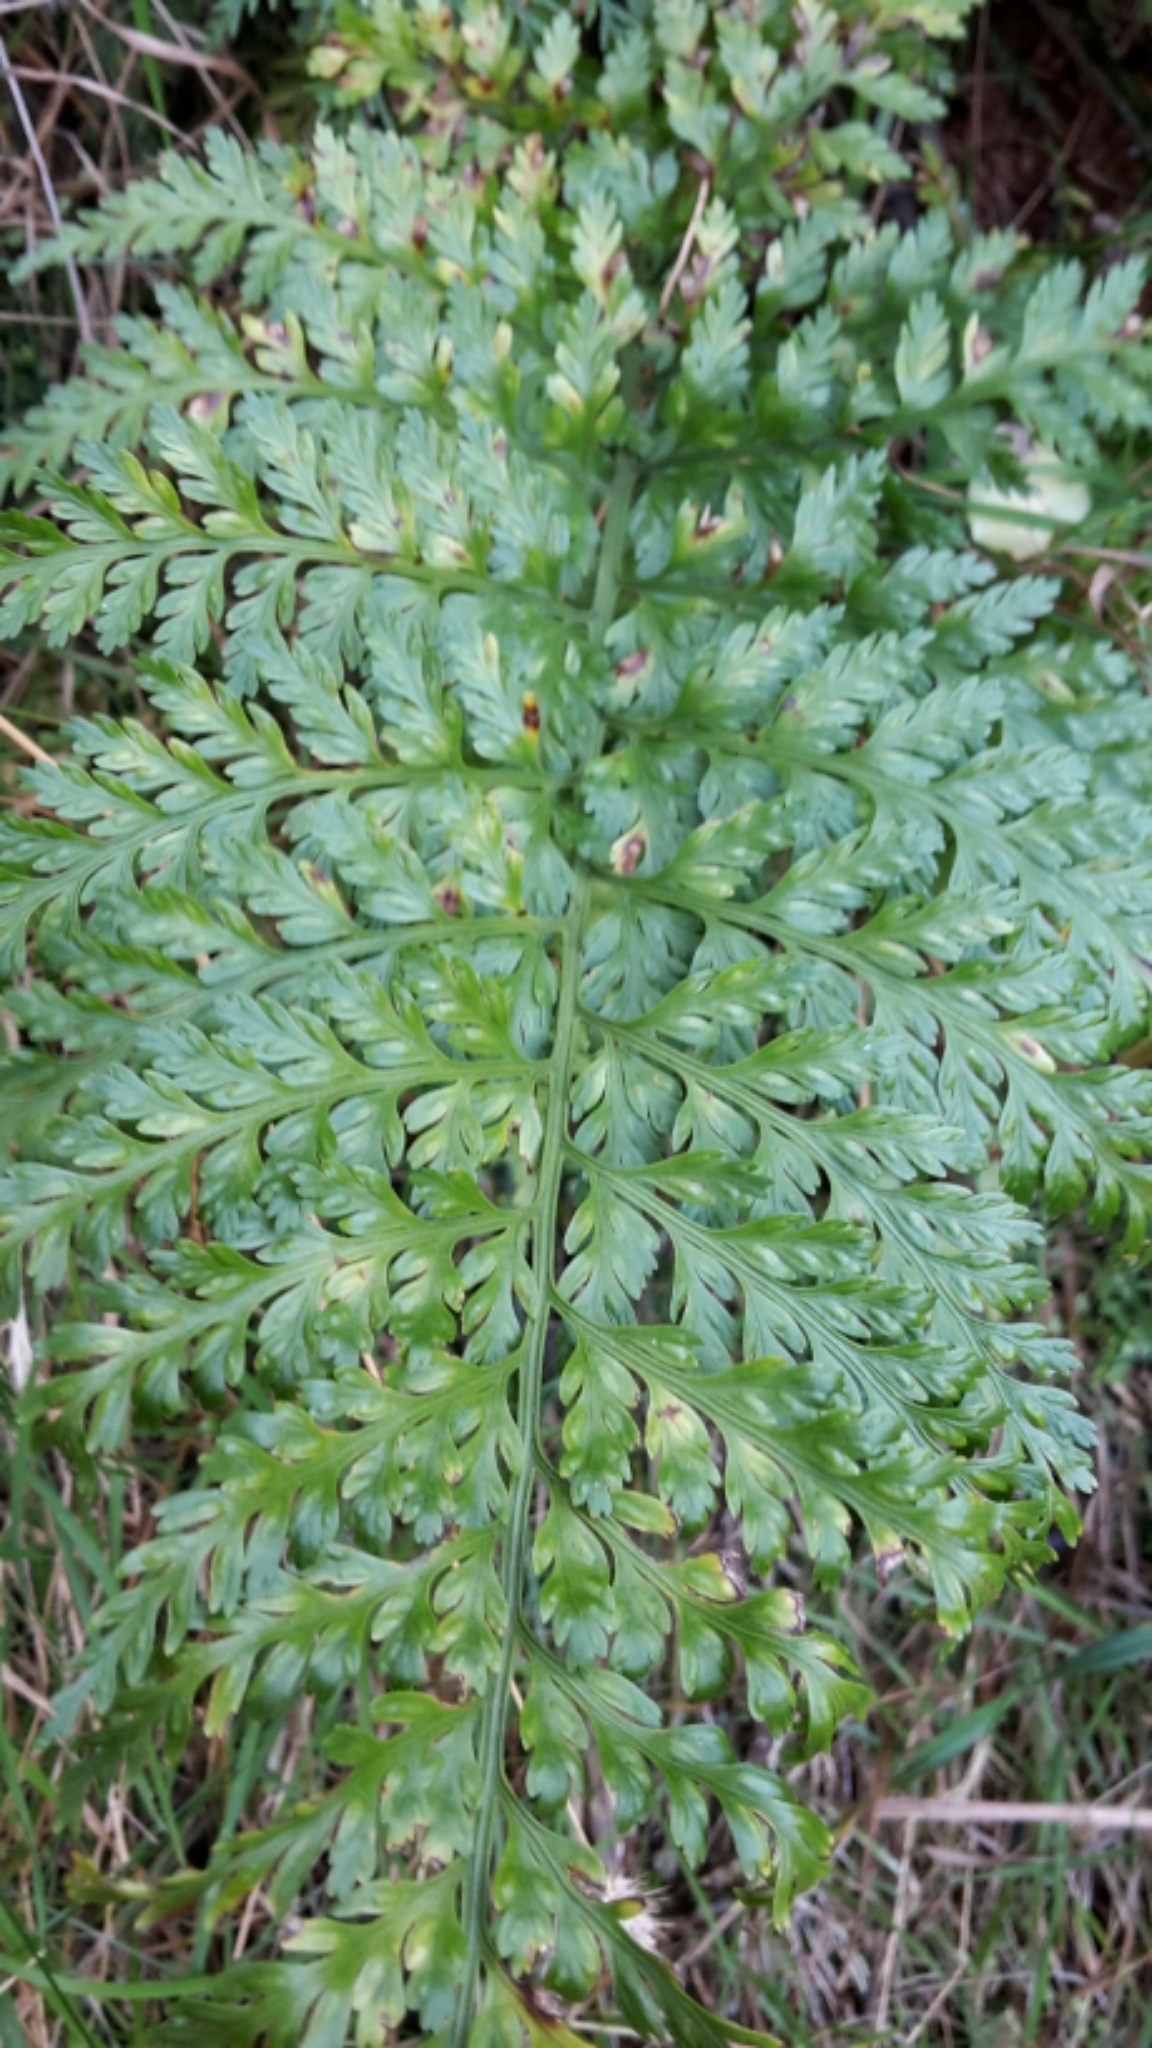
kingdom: Plantae
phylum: Tracheophyta
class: Polypodiopsida
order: Polypodiales
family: Aspleniaceae
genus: Asplenium
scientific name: Asplenium
